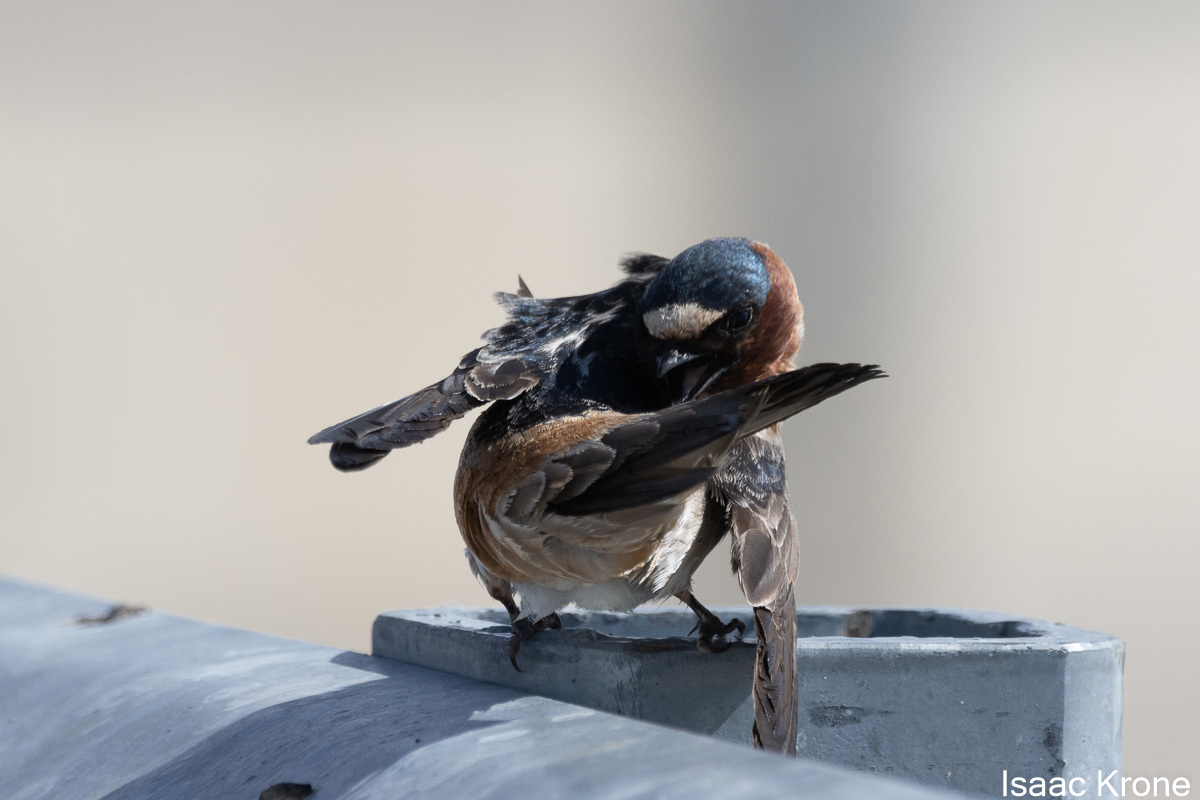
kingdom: Animalia
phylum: Chordata
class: Aves
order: Passeriformes
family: Hirundinidae
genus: Petrochelidon
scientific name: Petrochelidon pyrrhonota
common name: American cliff swallow
